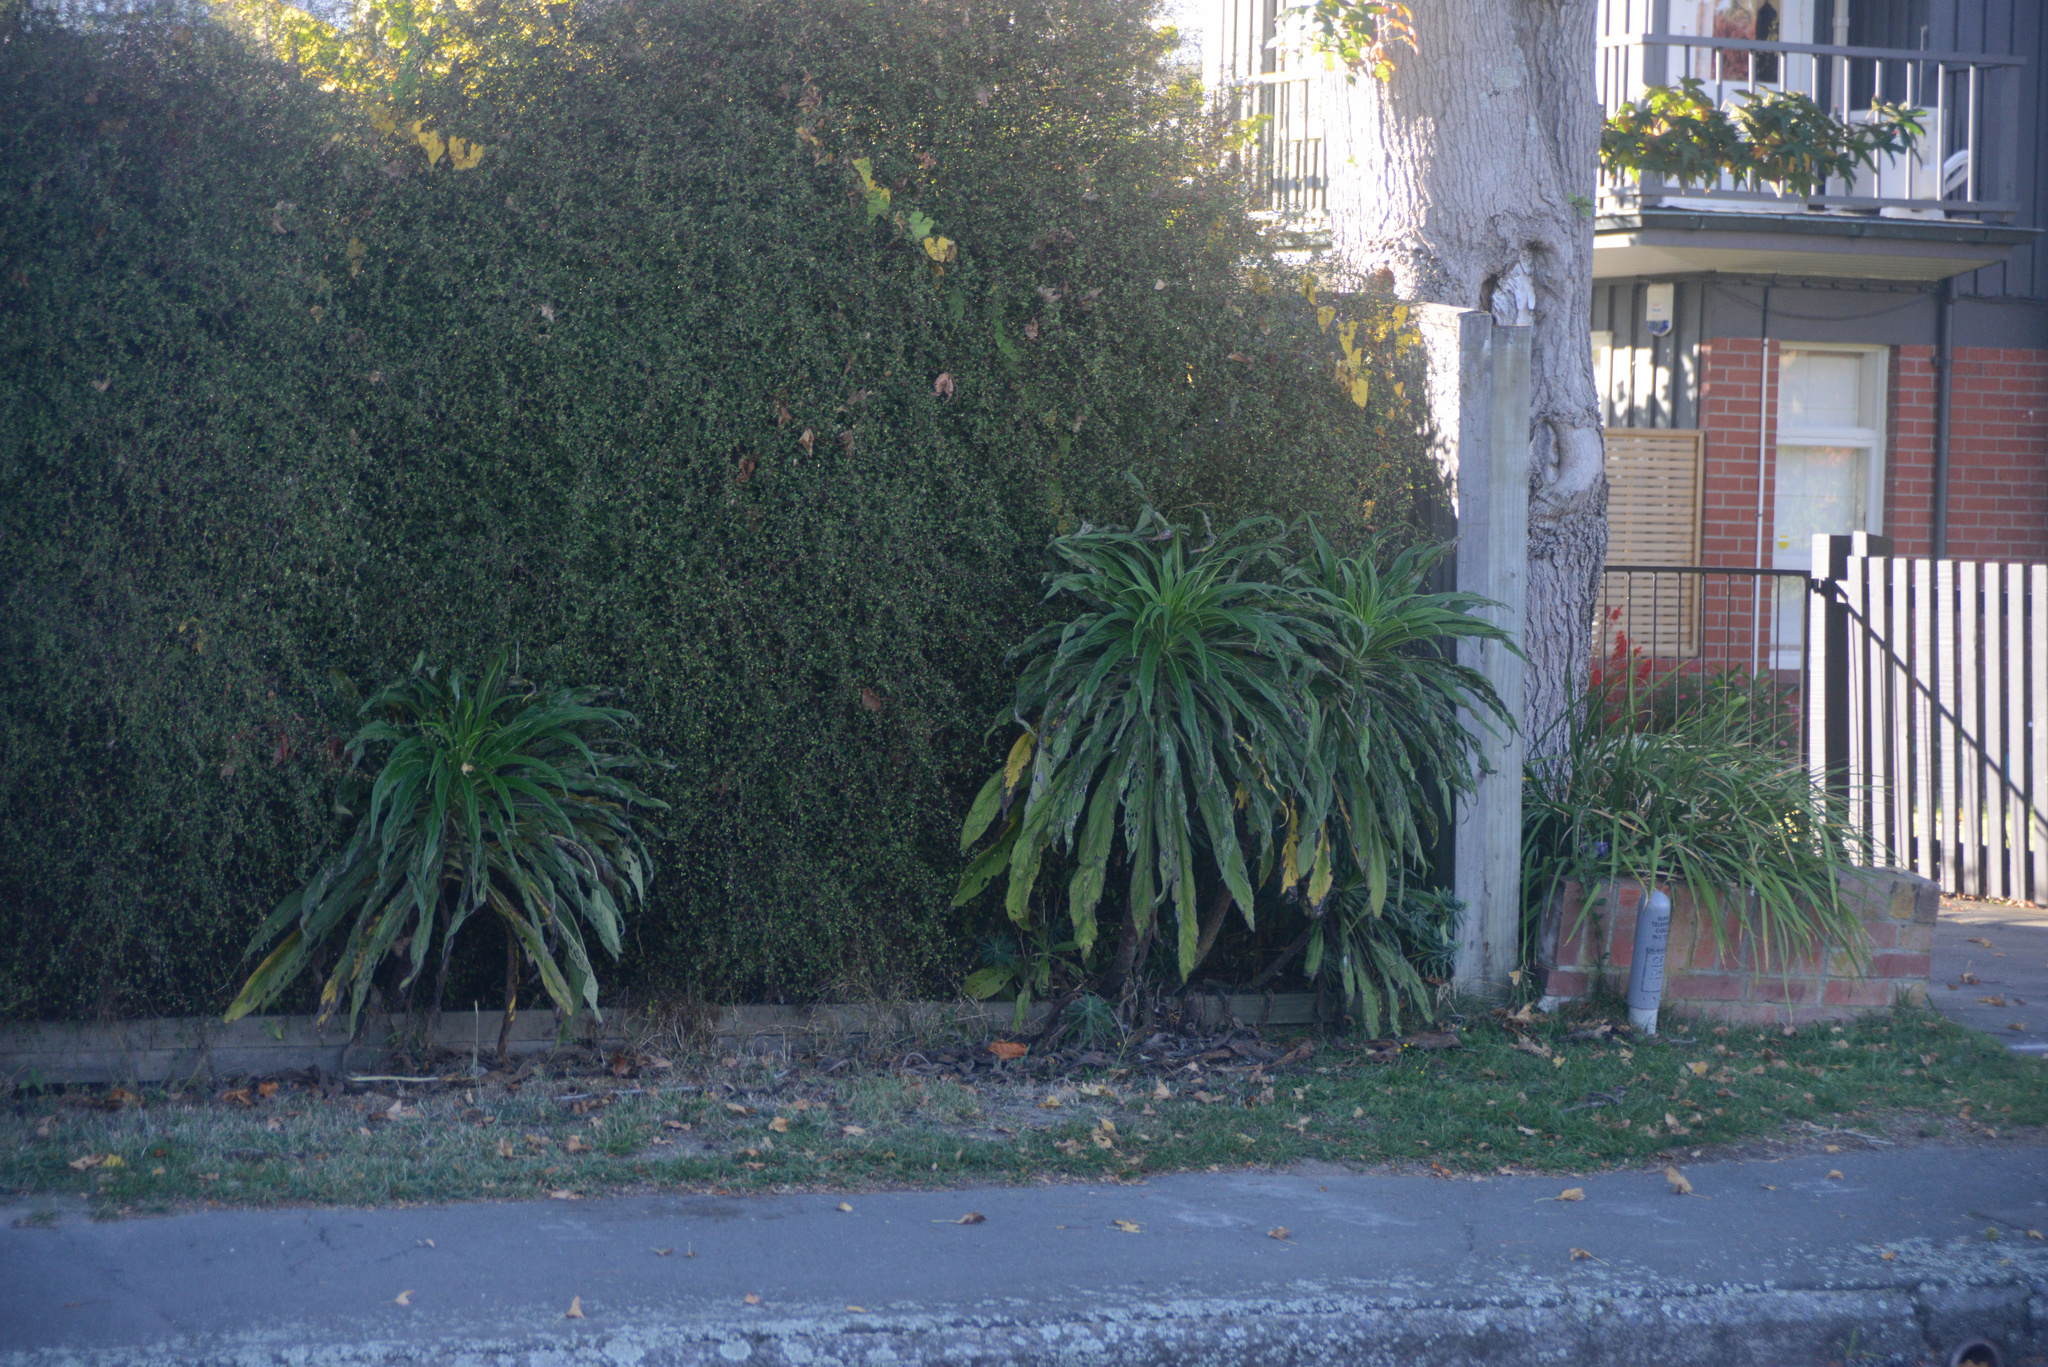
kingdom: Plantae
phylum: Tracheophyta
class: Magnoliopsida
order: Boraginales
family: Boraginaceae
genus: Echium
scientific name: Echium pininana
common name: Giant viper's-bugloss
